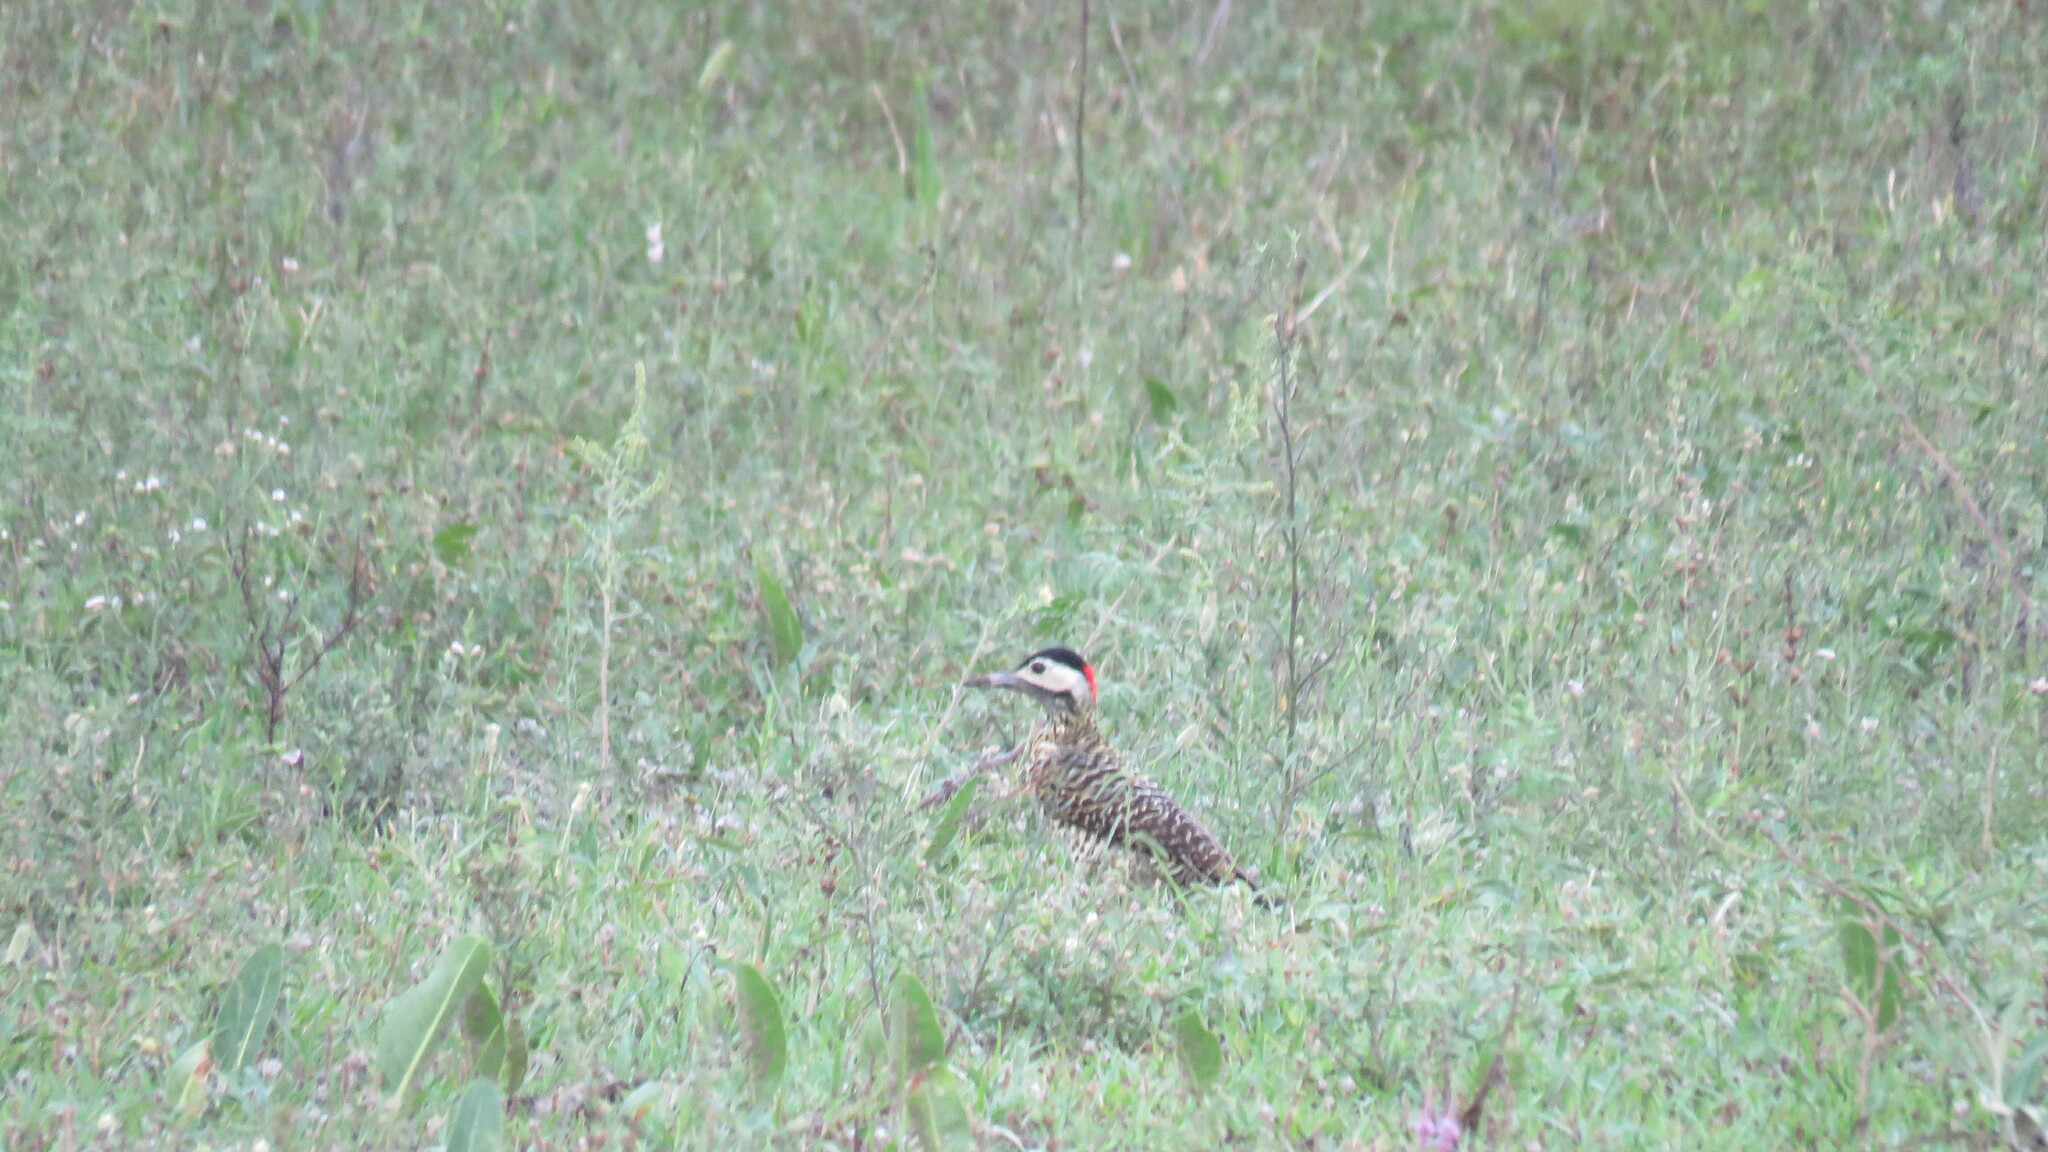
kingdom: Animalia
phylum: Chordata
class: Aves
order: Piciformes
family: Picidae
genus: Colaptes
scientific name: Colaptes melanochloros
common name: Green-barred woodpecker
